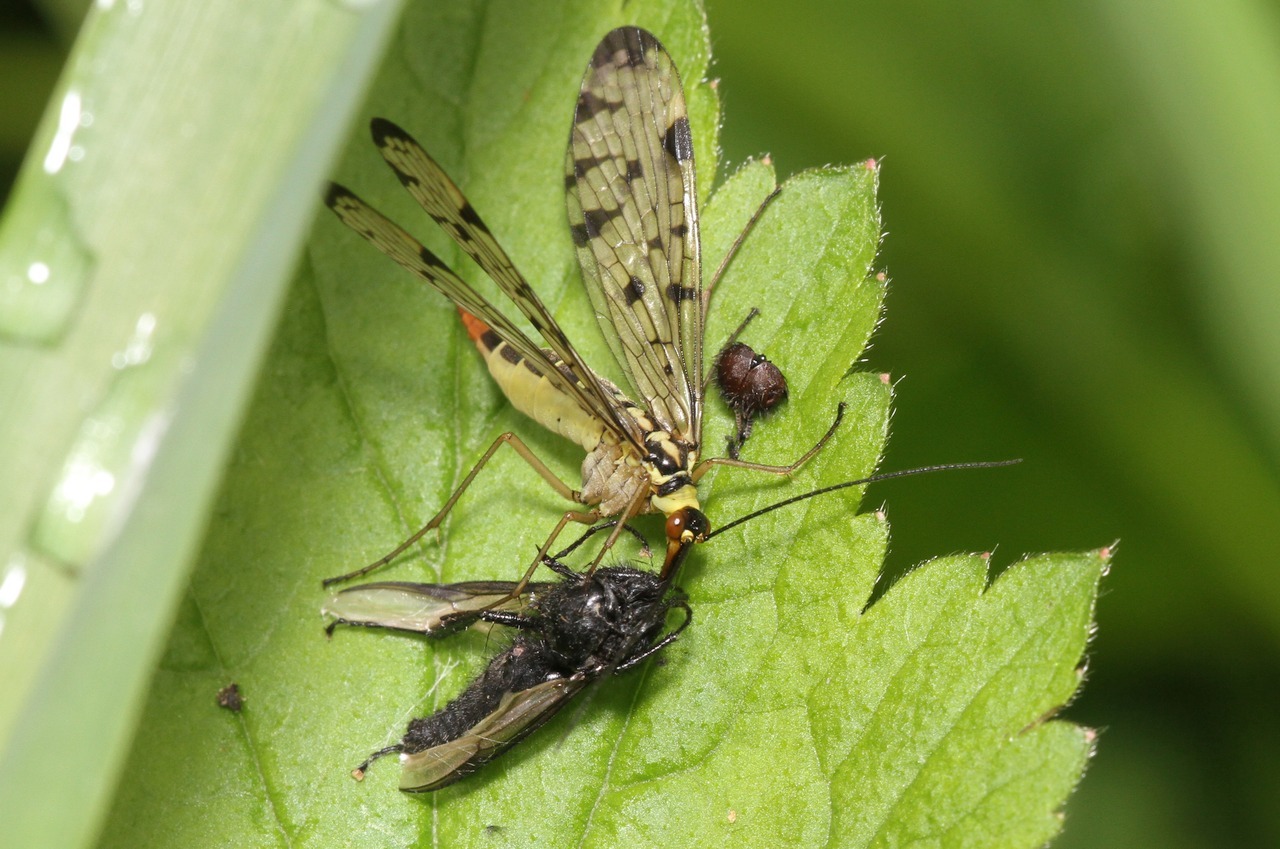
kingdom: Animalia
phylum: Arthropoda
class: Insecta
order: Mecoptera
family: Panorpidae
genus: Panorpa
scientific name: Panorpa germanica
